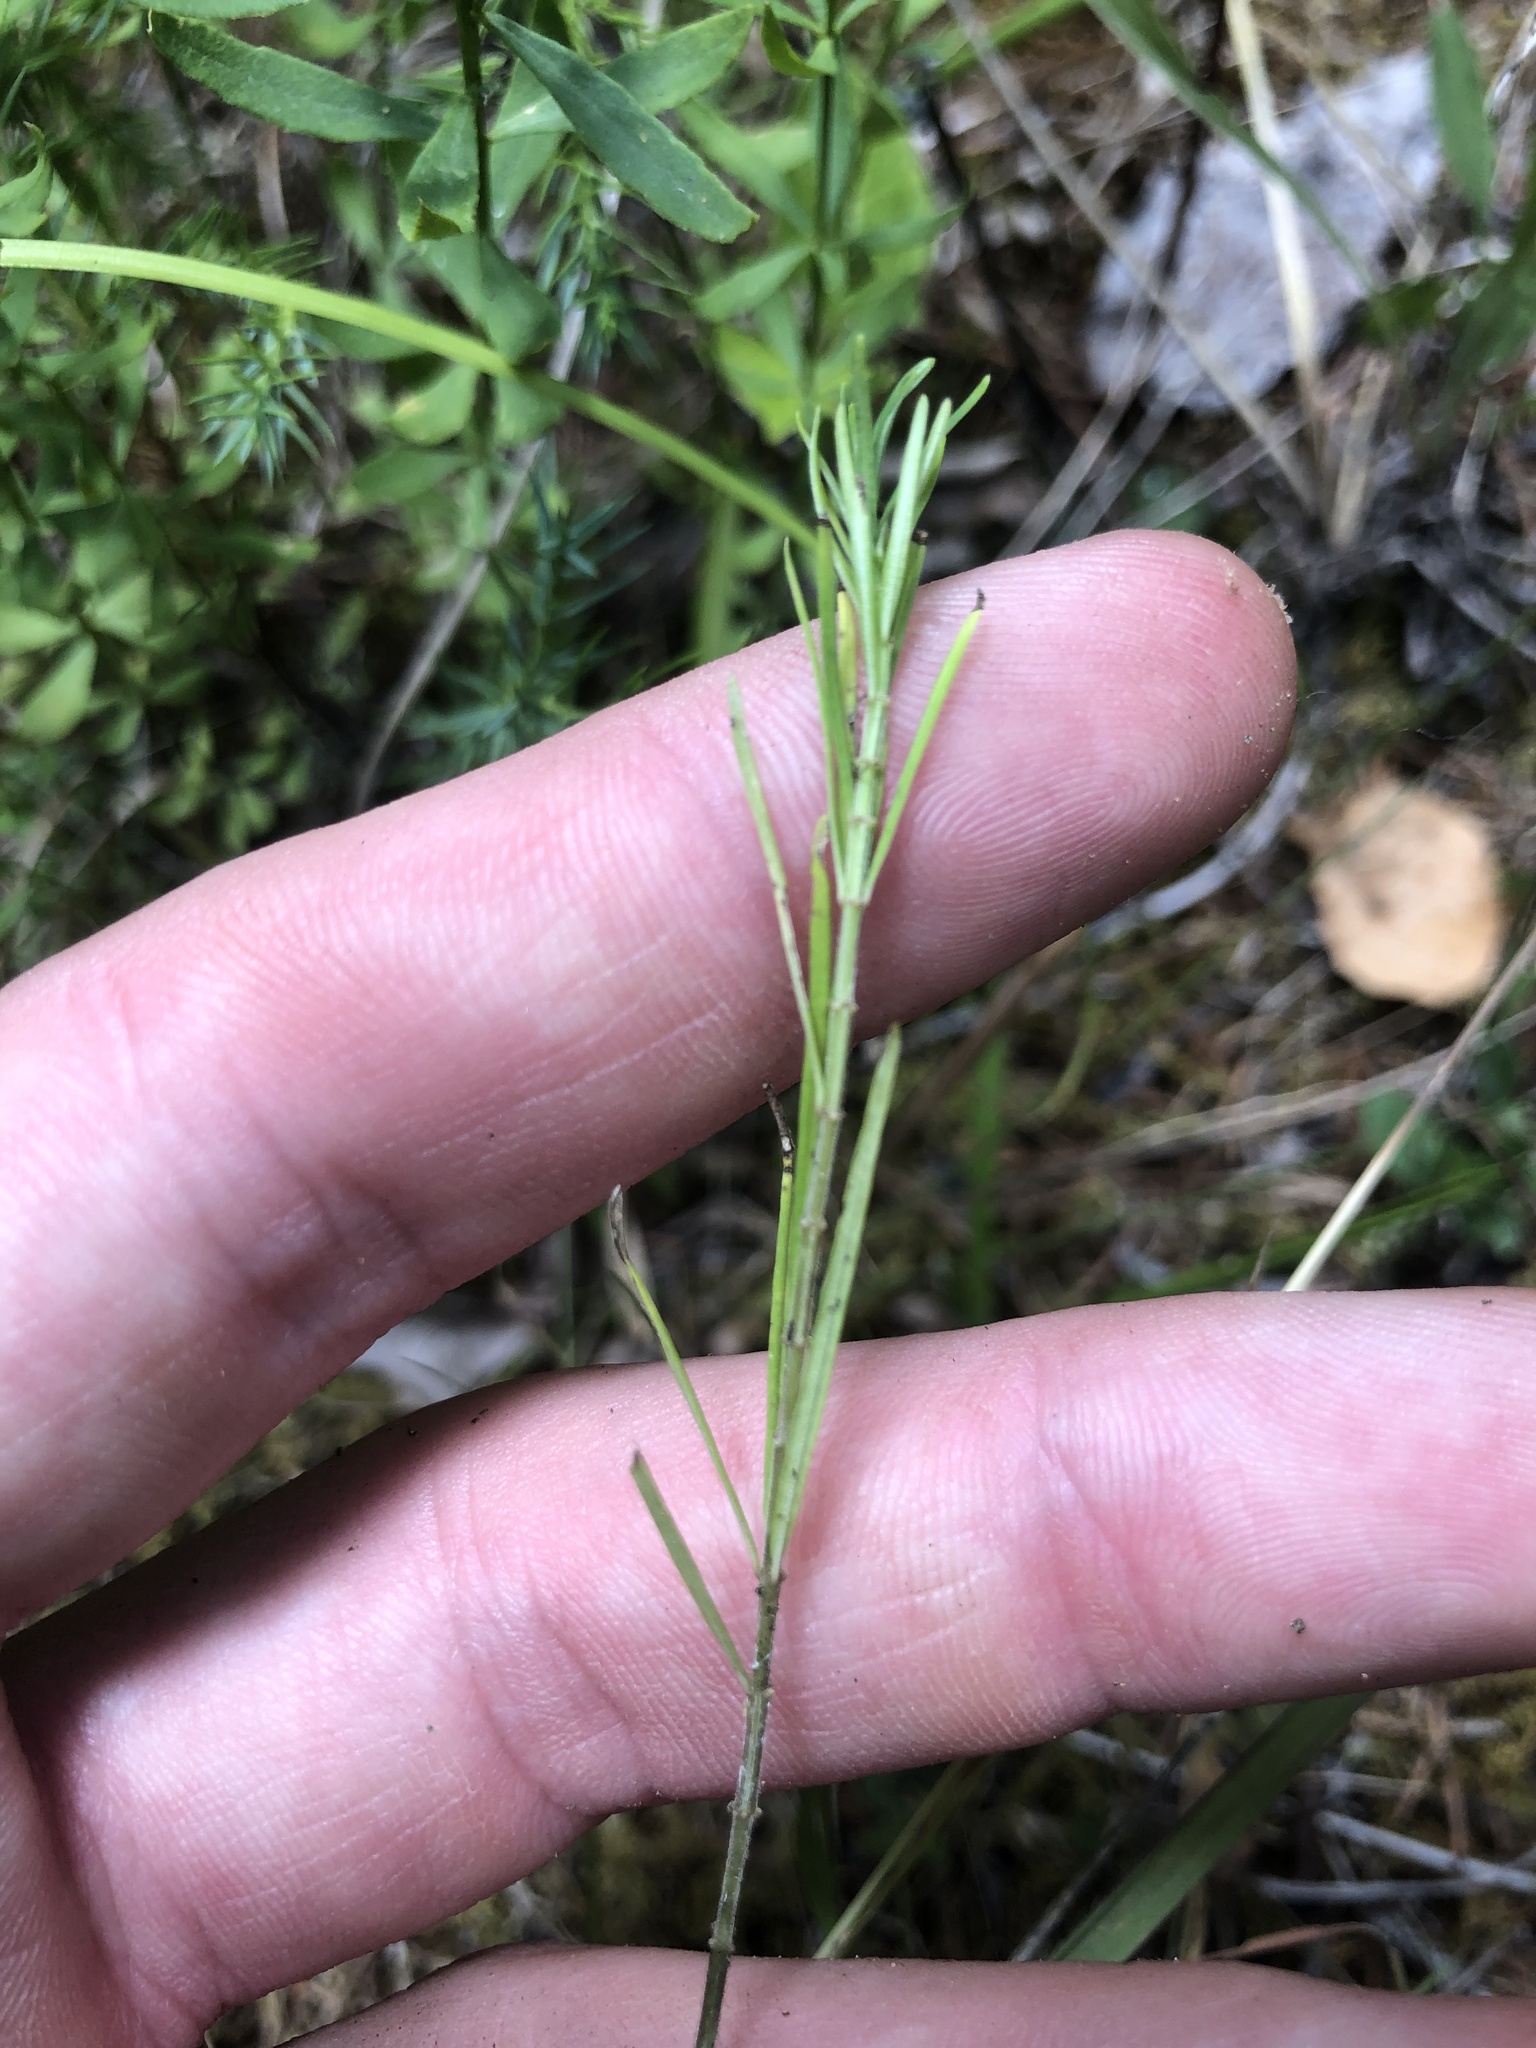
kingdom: Plantae
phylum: Tracheophyta
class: Magnoliopsida
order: Gentianales
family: Apocynaceae
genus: Asclepias
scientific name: Asclepias verticillata
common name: Eastern whorled milkweed
